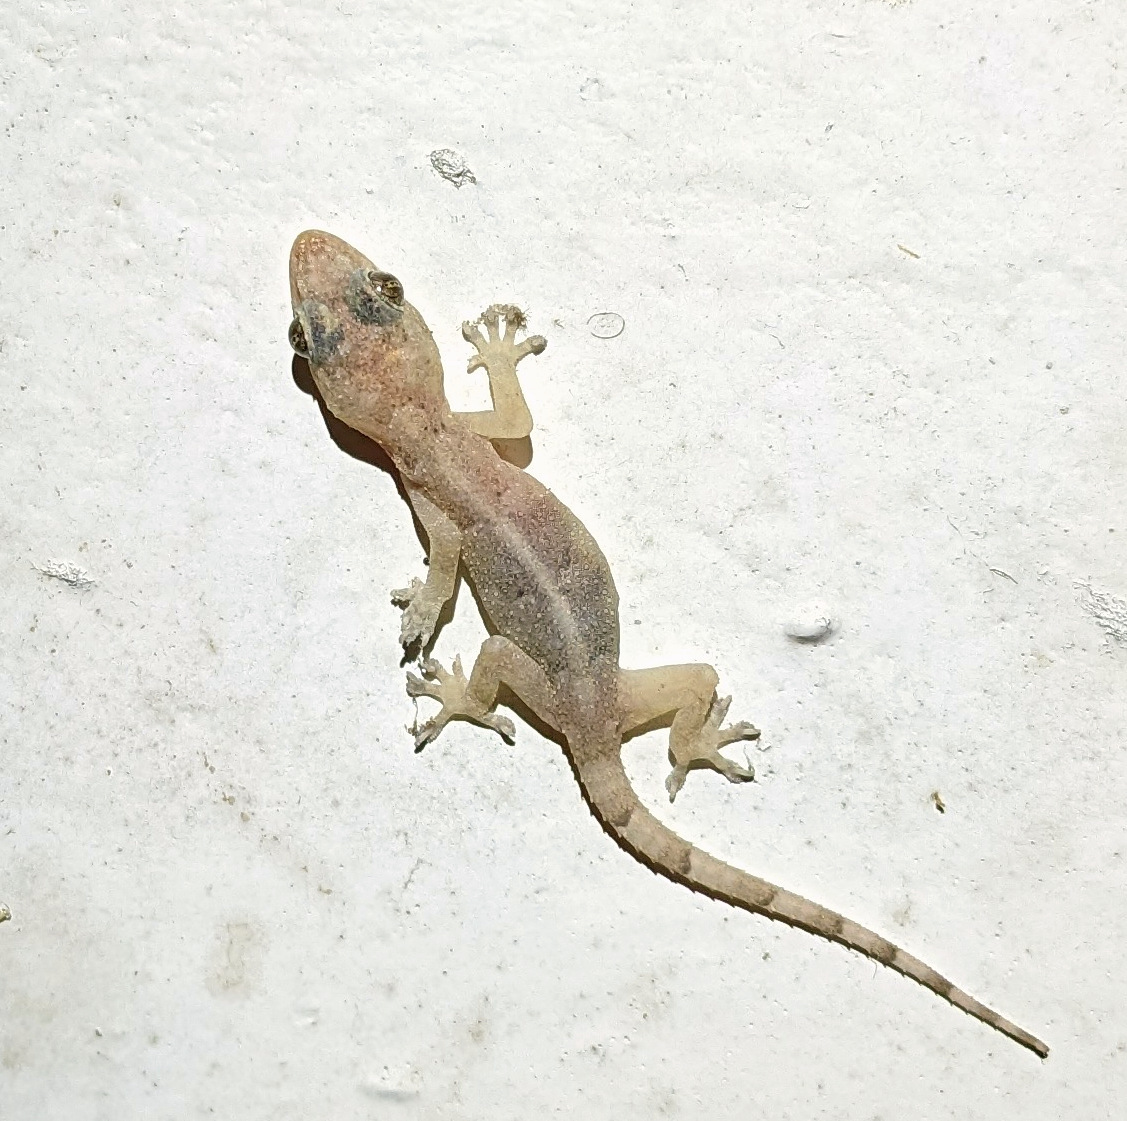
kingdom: Animalia
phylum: Chordata
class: Squamata
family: Gekkonidae
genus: Hemidactylus
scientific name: Hemidactylus mabouia
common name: House gecko
